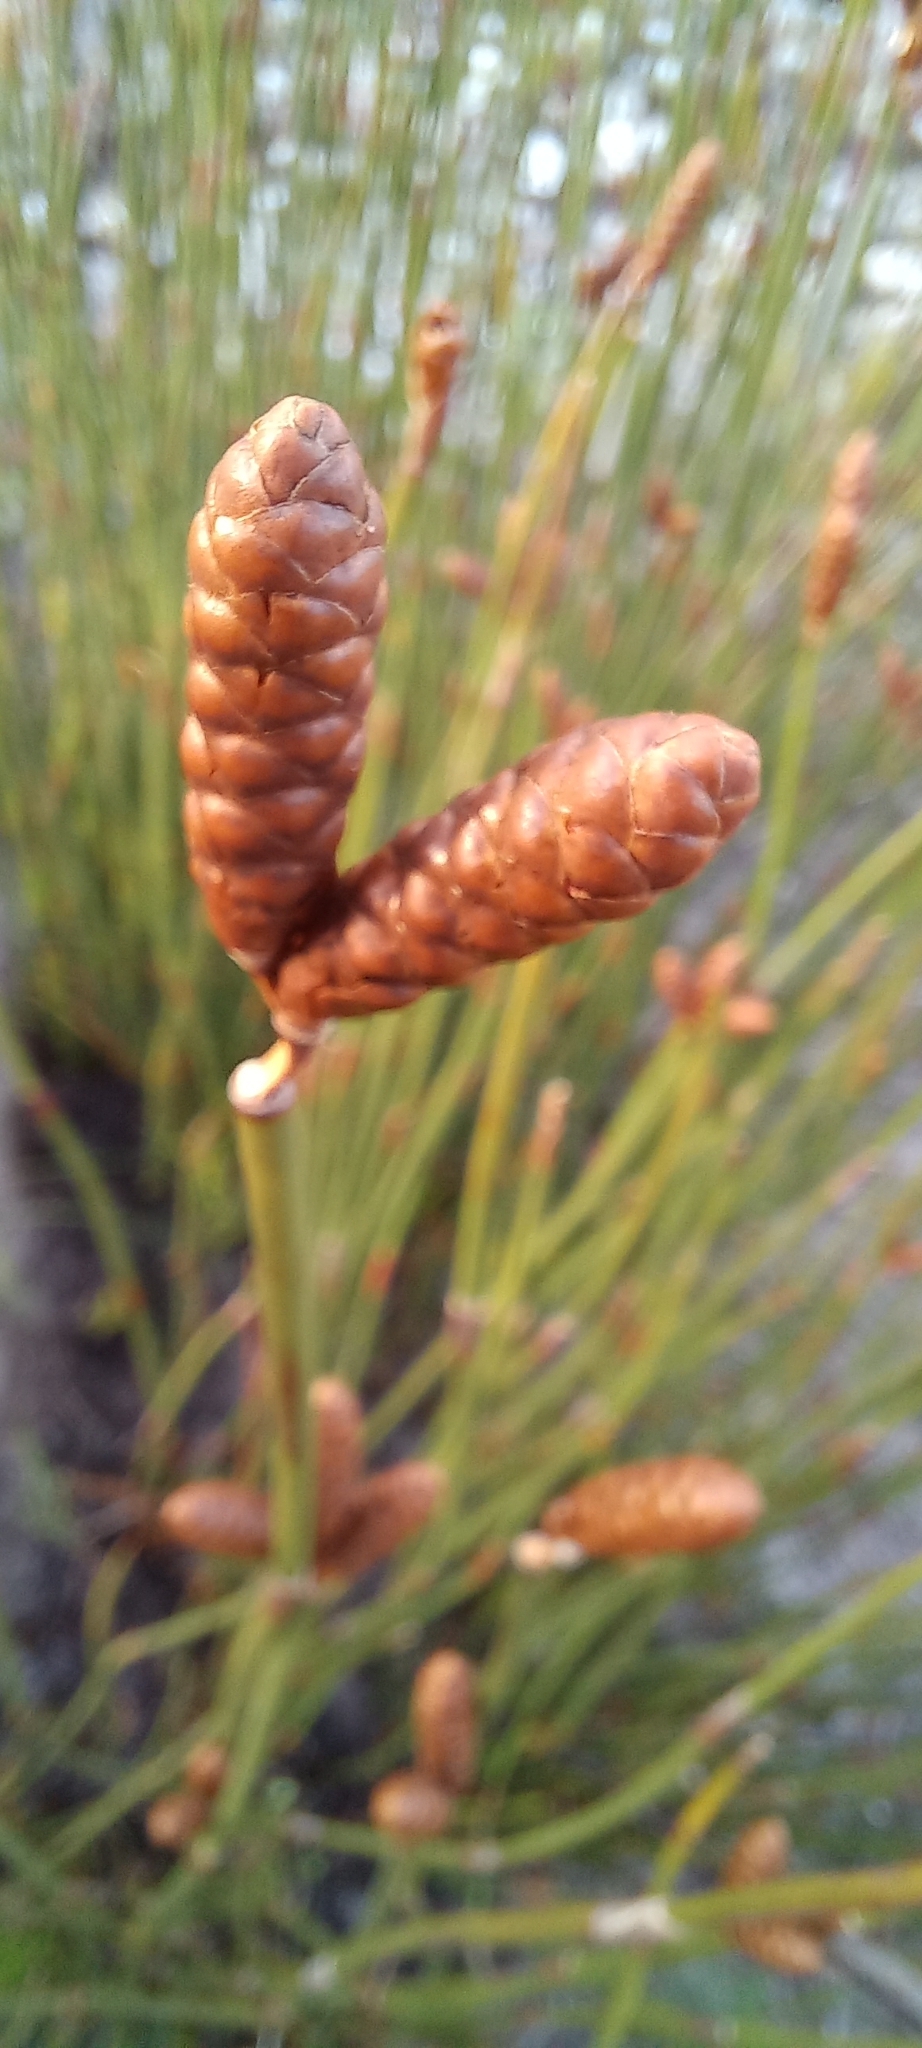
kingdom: Plantae
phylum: Tracheophyta
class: Liliopsida
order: Poales
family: Restionaceae
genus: Nevillea
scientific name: Nevillea obtusissimus
